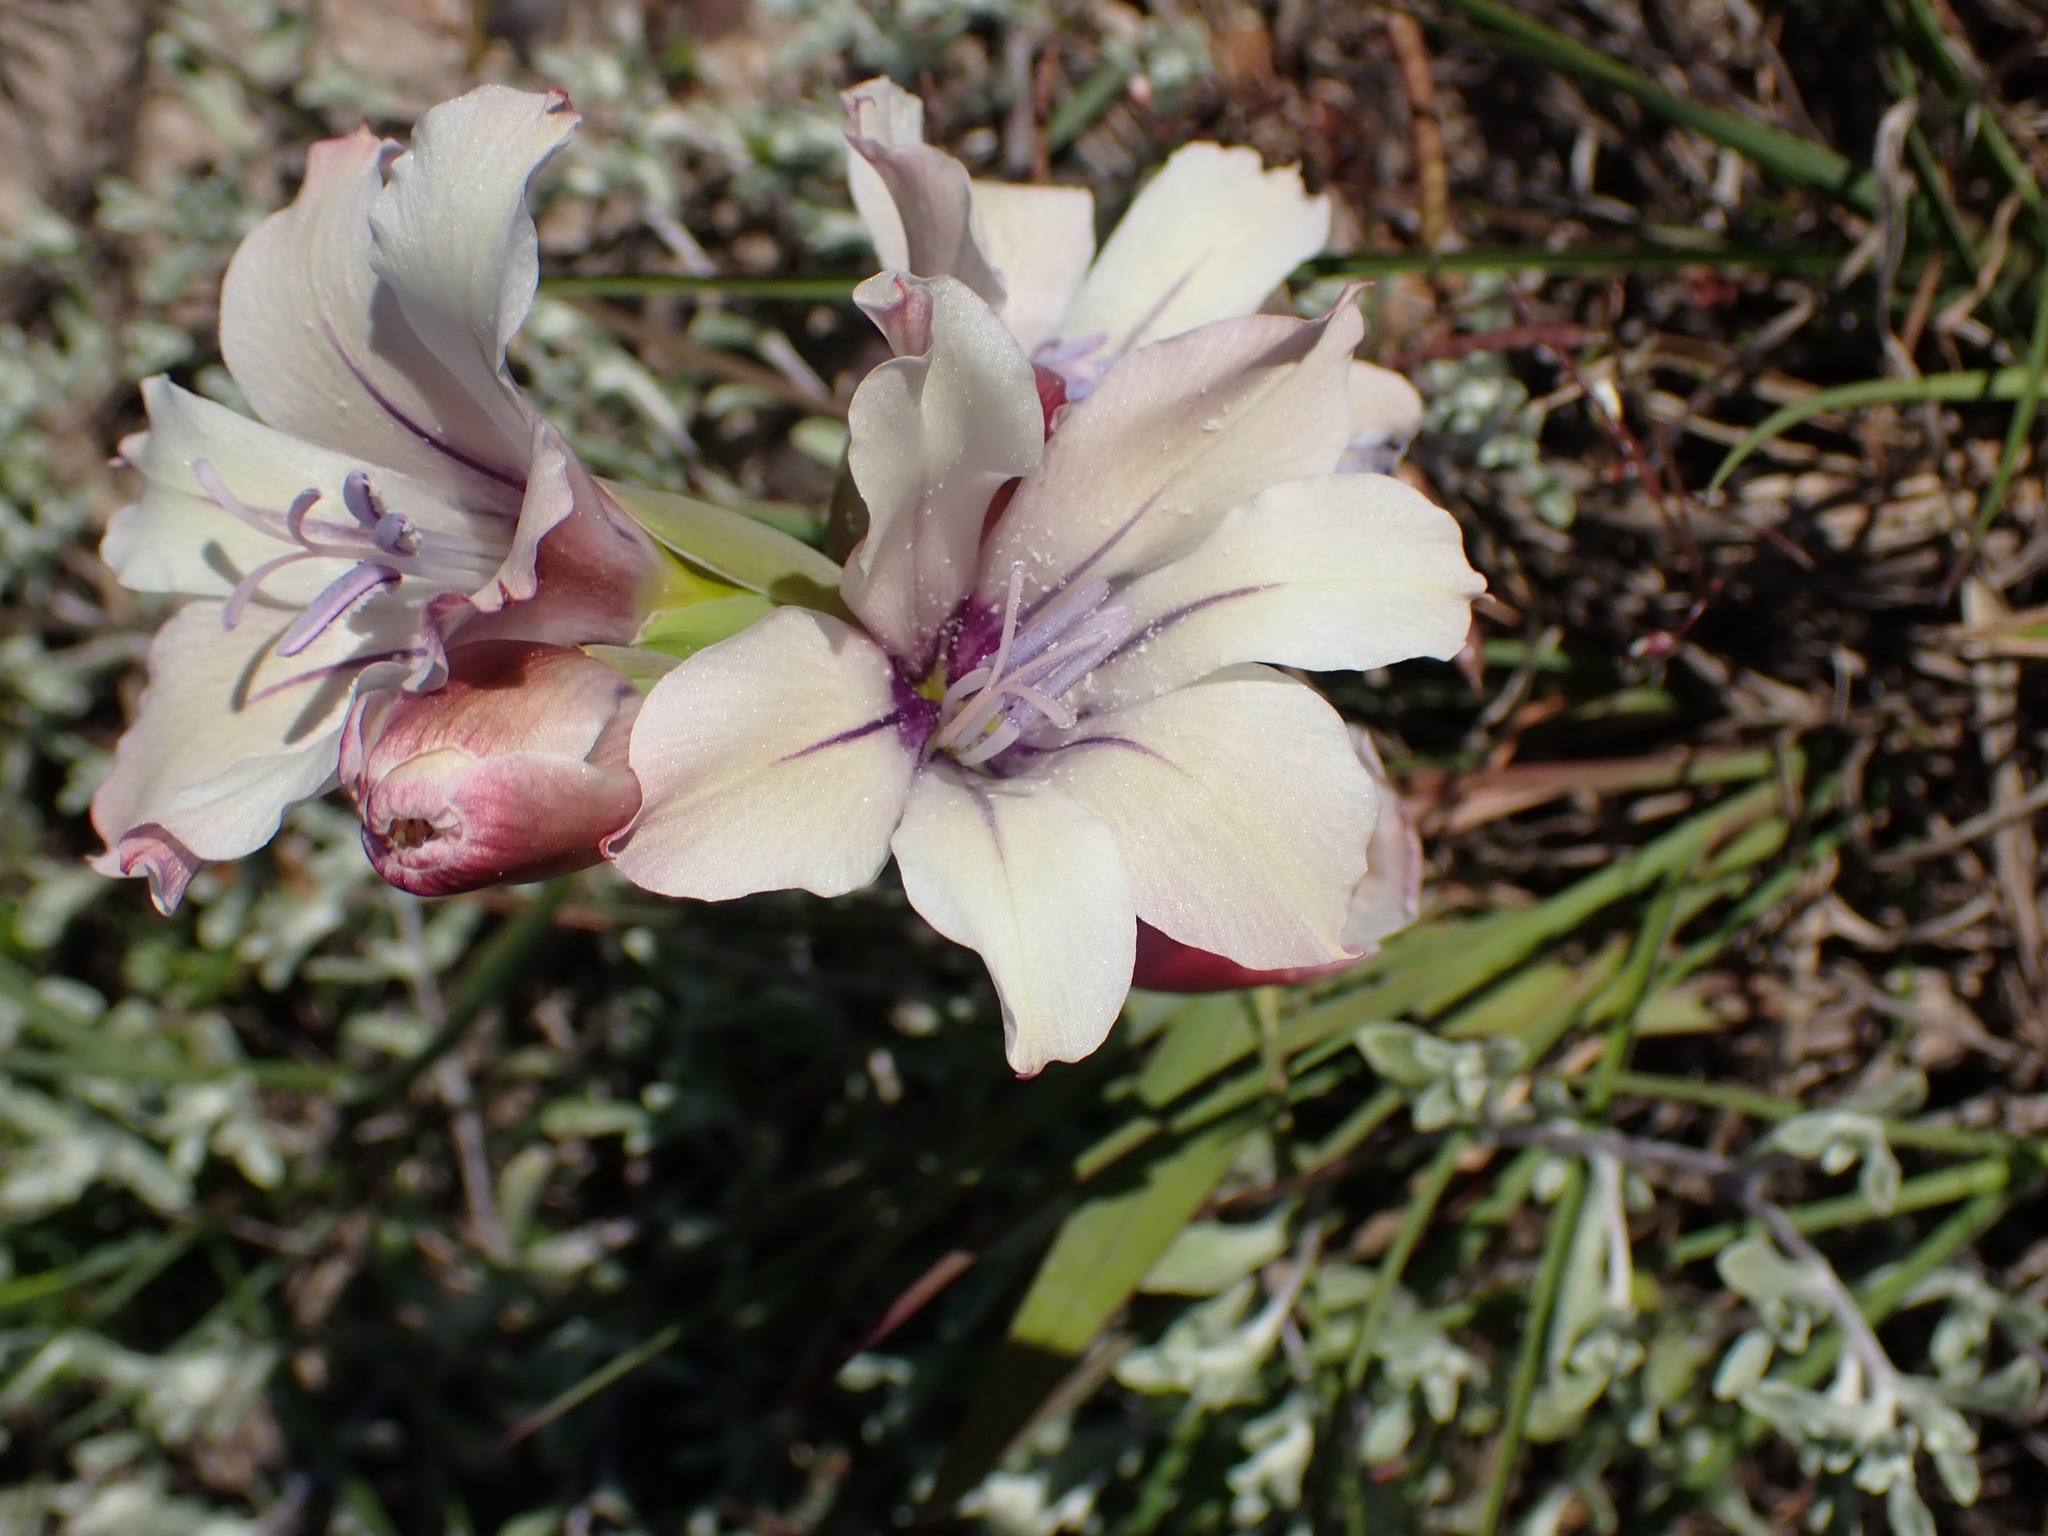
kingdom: Plantae
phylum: Tracheophyta
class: Liliopsida
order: Asparagales
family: Iridaceae
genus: Gladiolus
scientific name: Gladiolus floribundus
